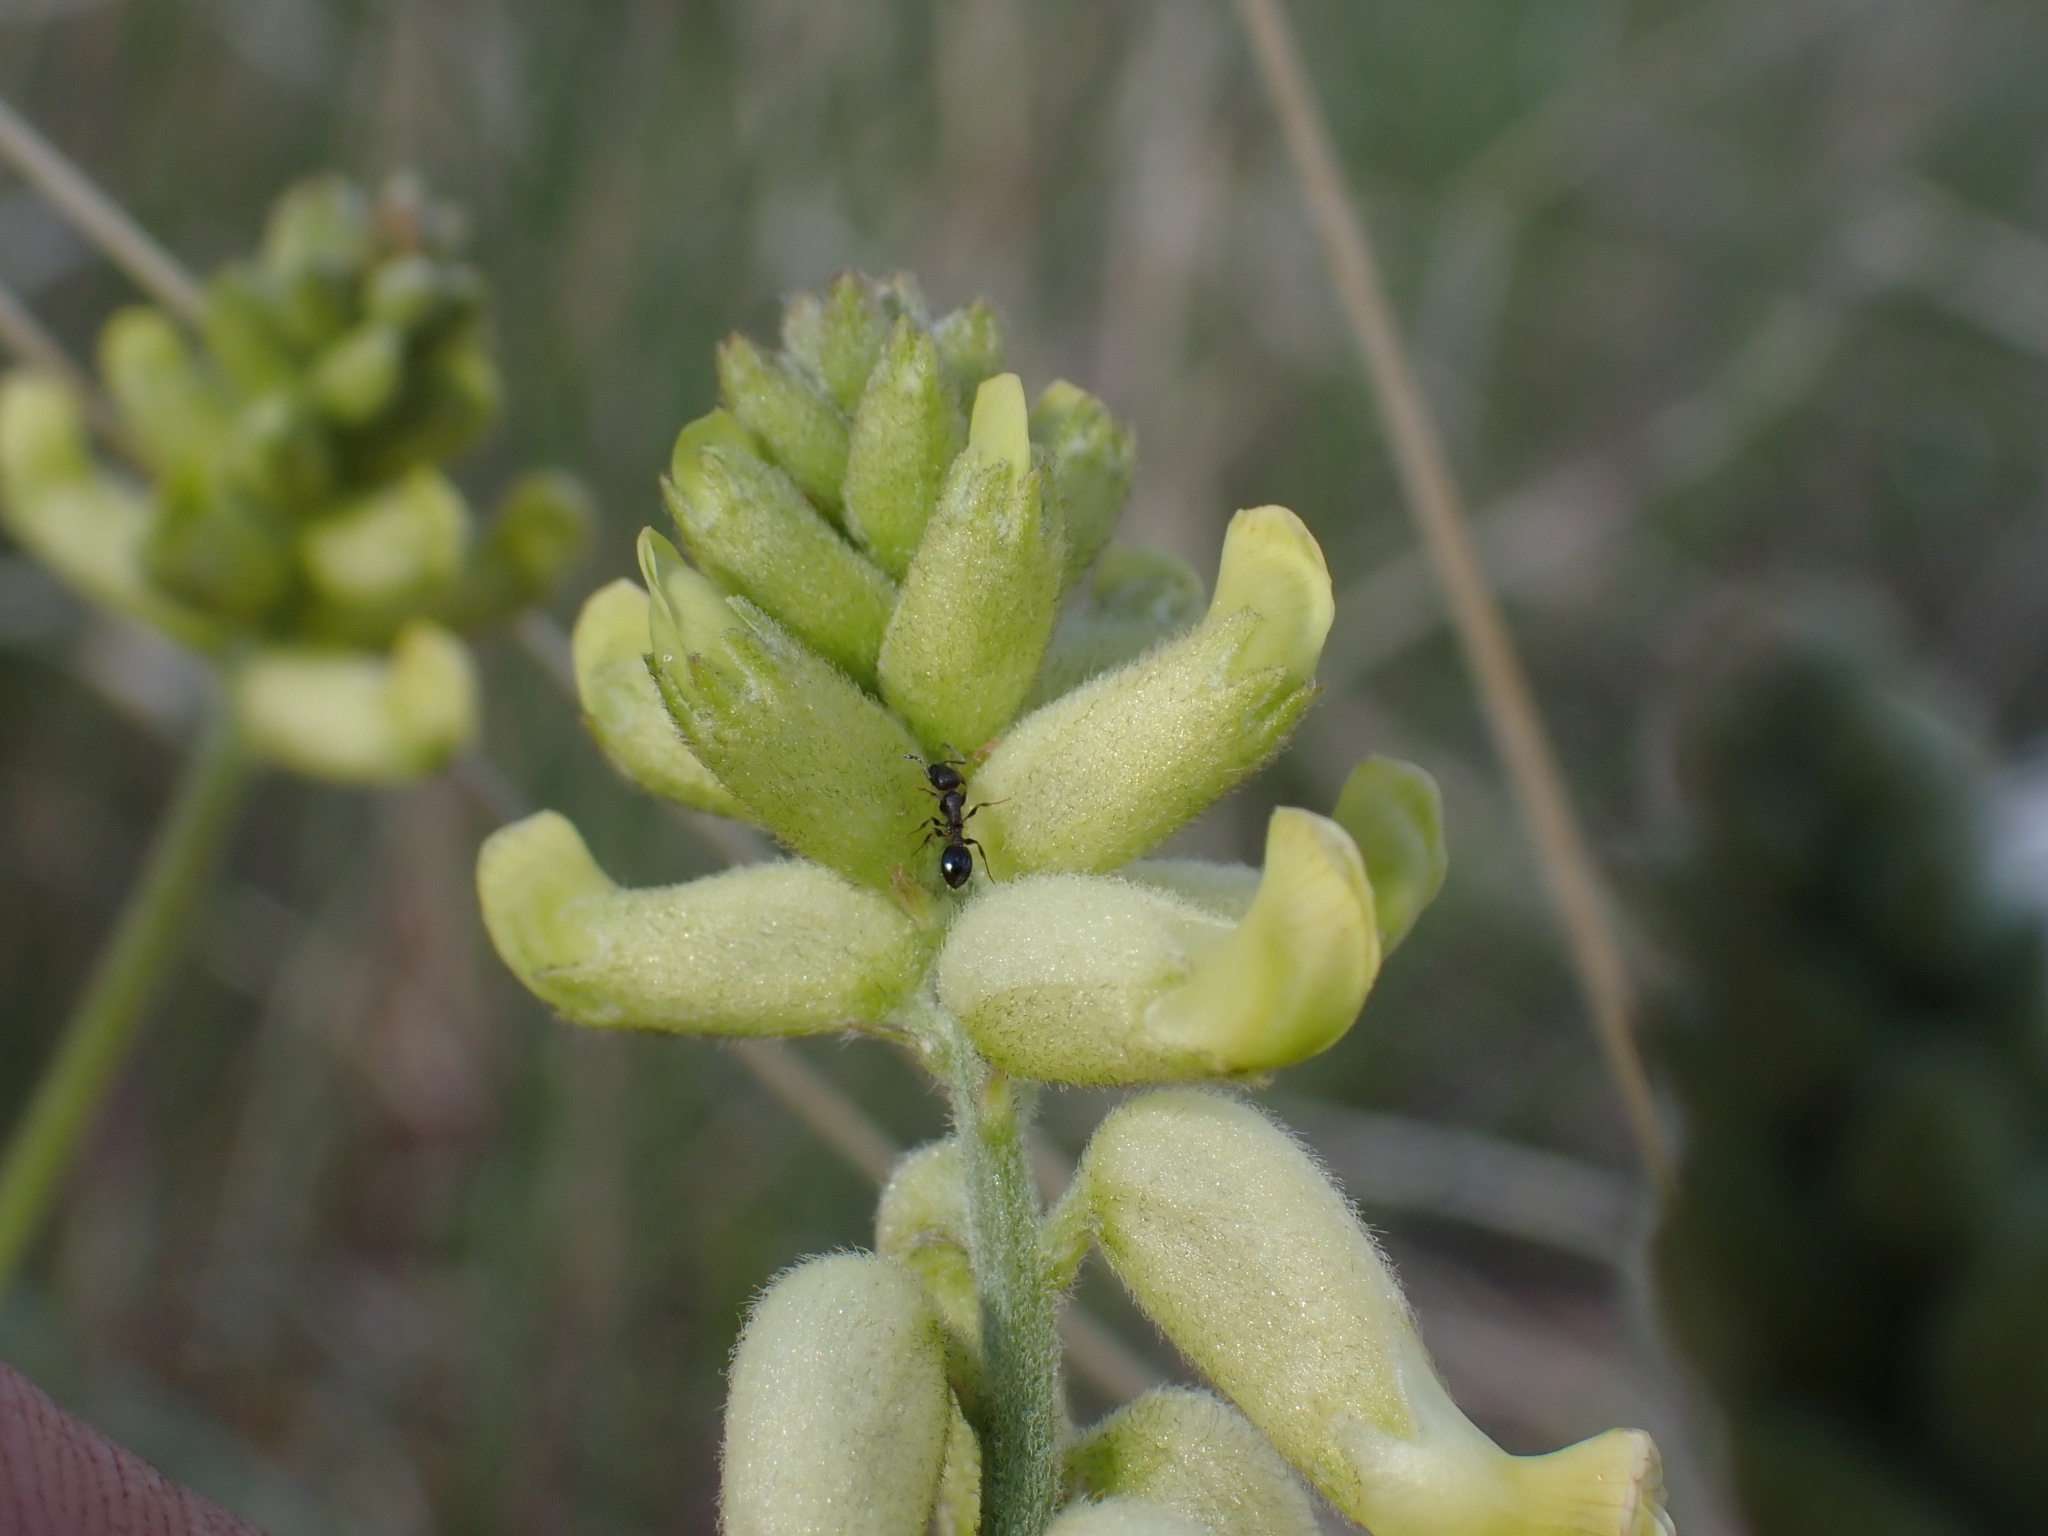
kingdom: Plantae
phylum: Tracheophyta
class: Magnoliopsida
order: Fabales
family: Fabaceae
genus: Astragalus
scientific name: Astragalus collinus
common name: Hill milk-vetch
